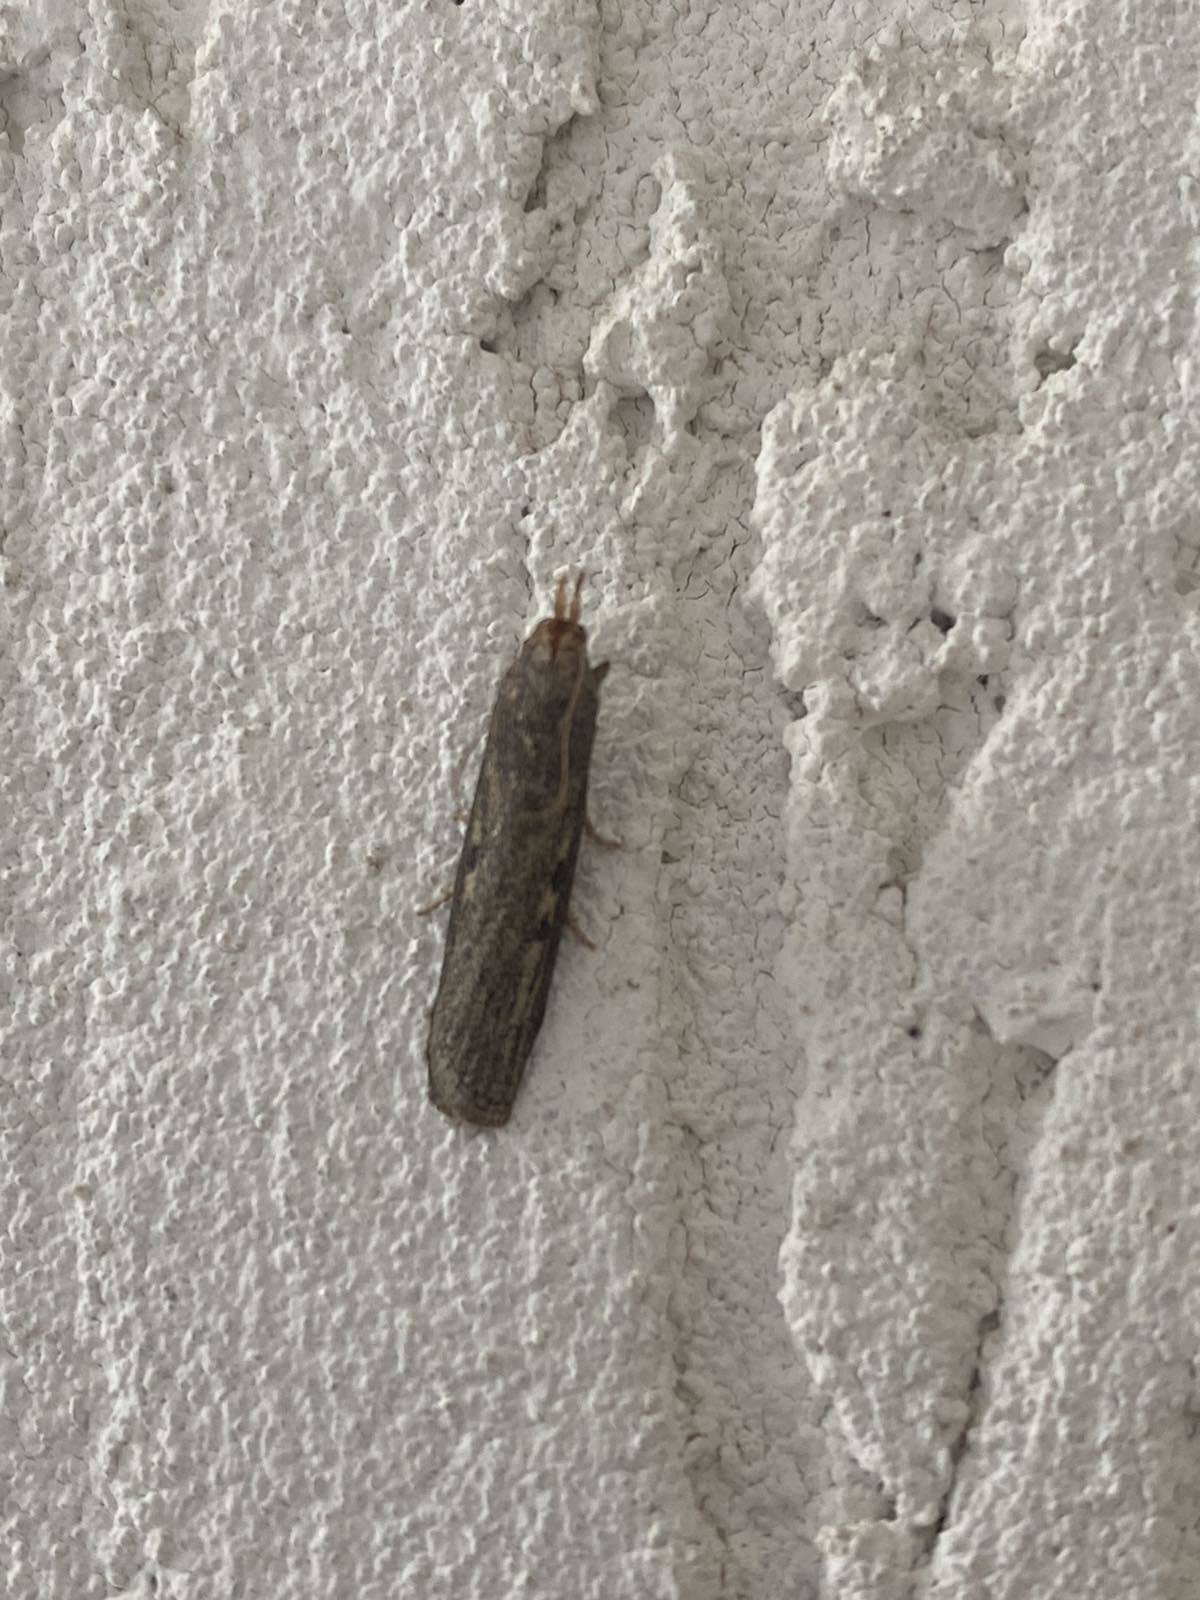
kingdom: Animalia
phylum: Arthropoda
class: Insecta
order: Lepidoptera
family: Pyralidae
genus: Aphomia
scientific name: Aphomia zelleri
